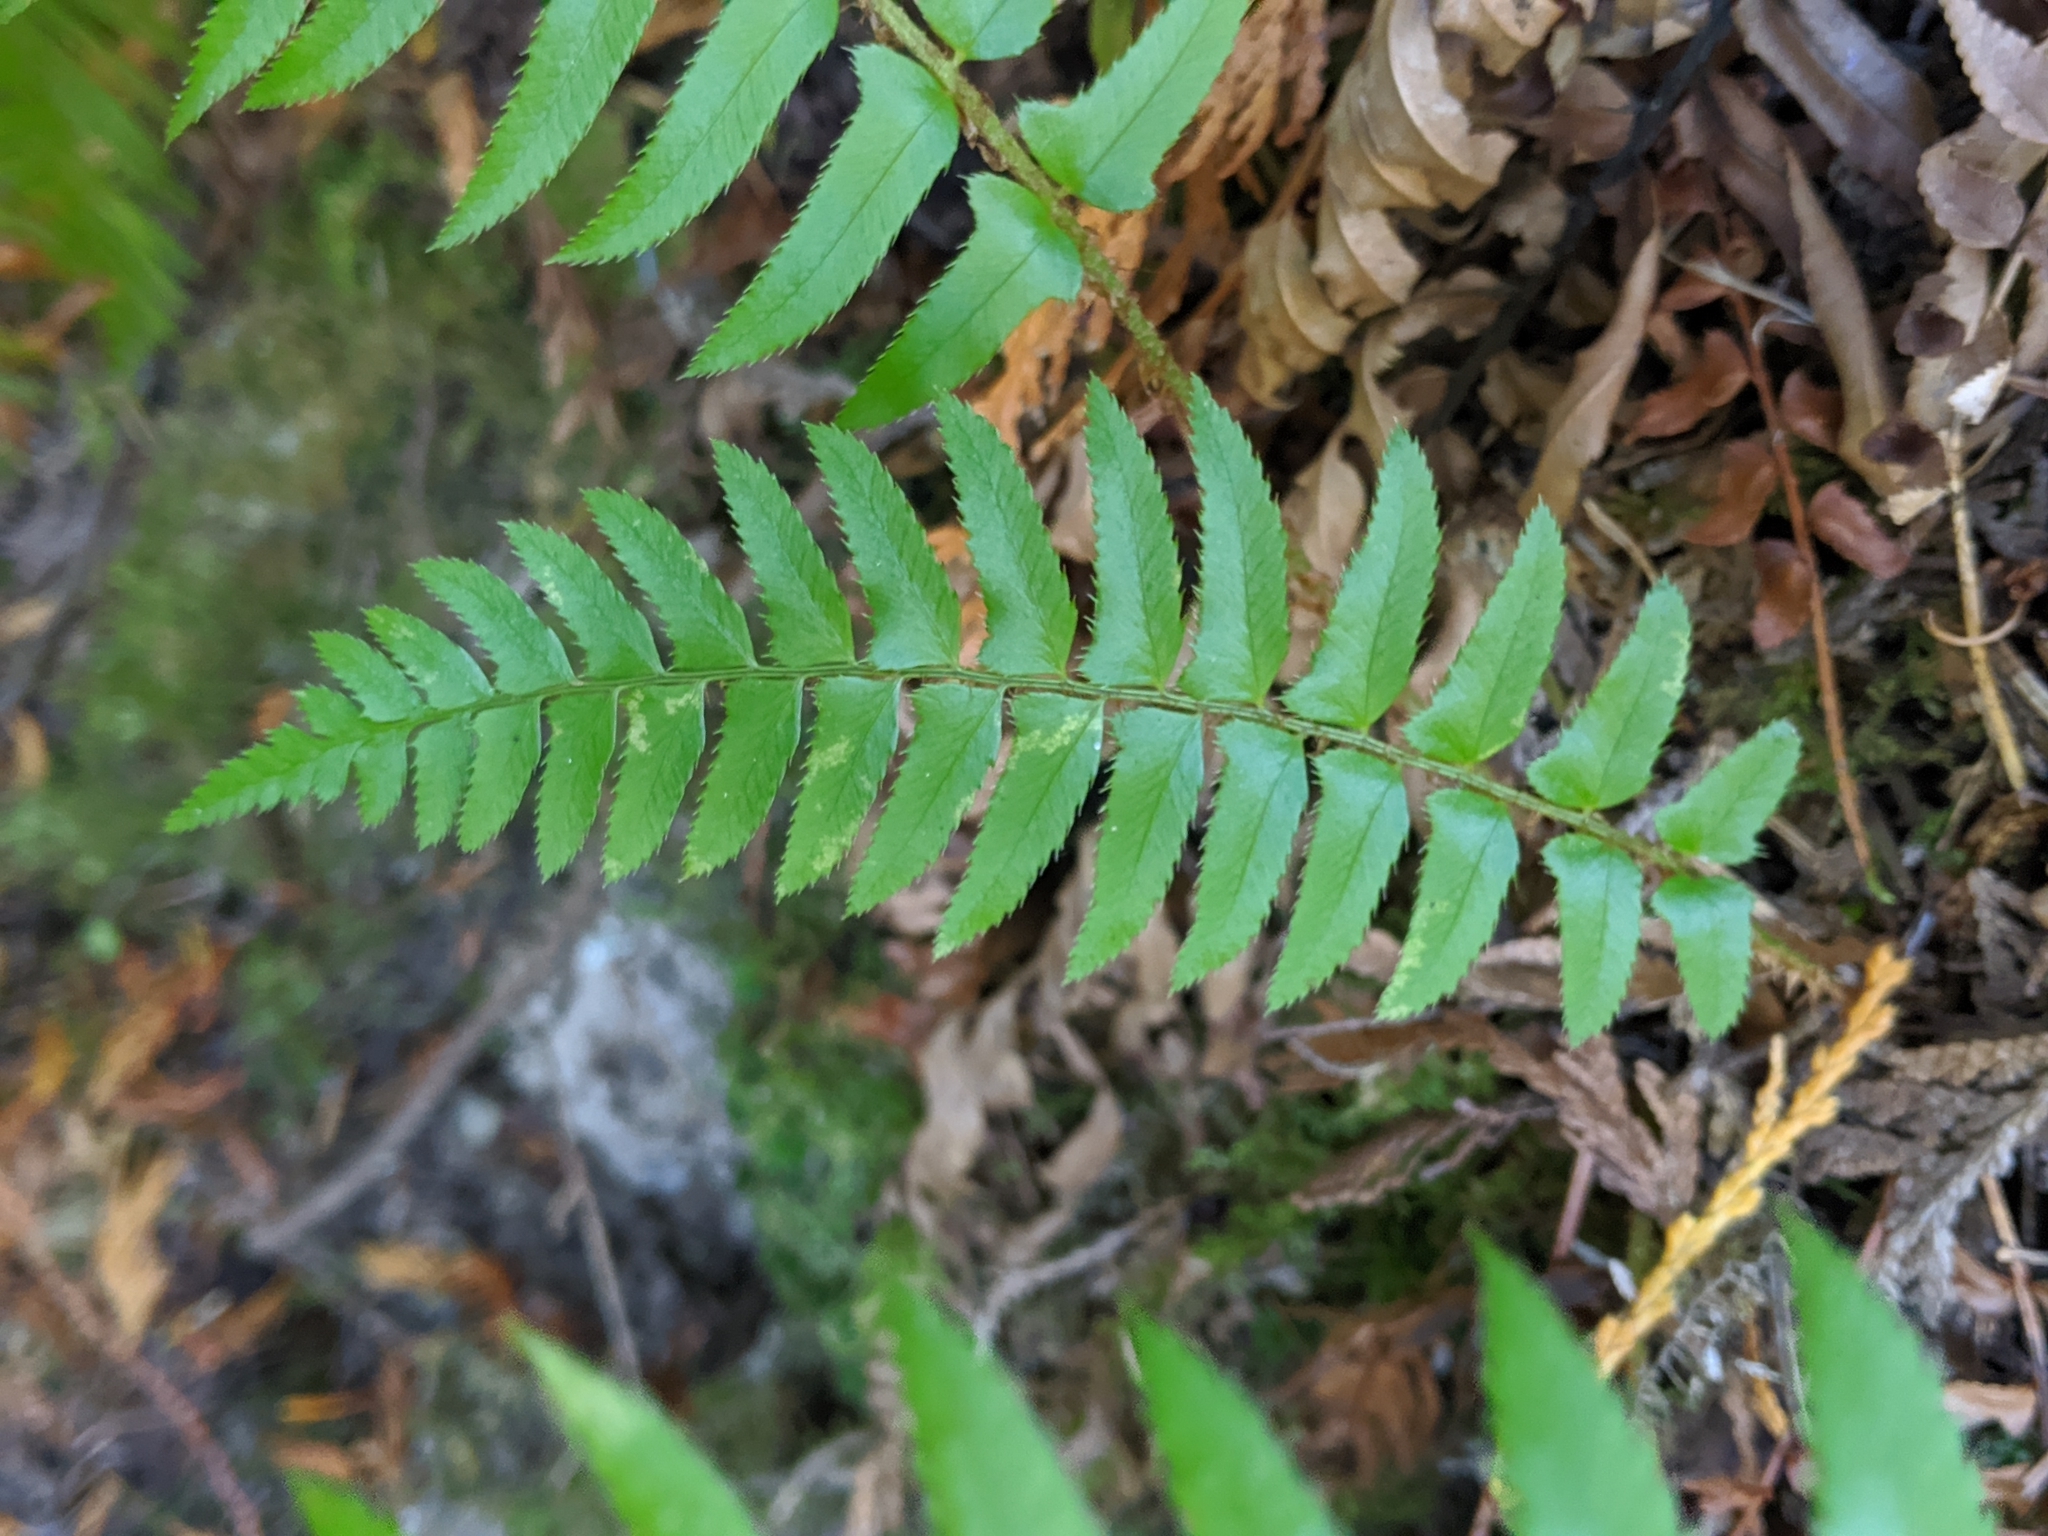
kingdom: Plantae
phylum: Tracheophyta
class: Polypodiopsida
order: Polypodiales
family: Dryopteridaceae
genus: Polystichum
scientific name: Polystichum munitum
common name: Western sword-fern
